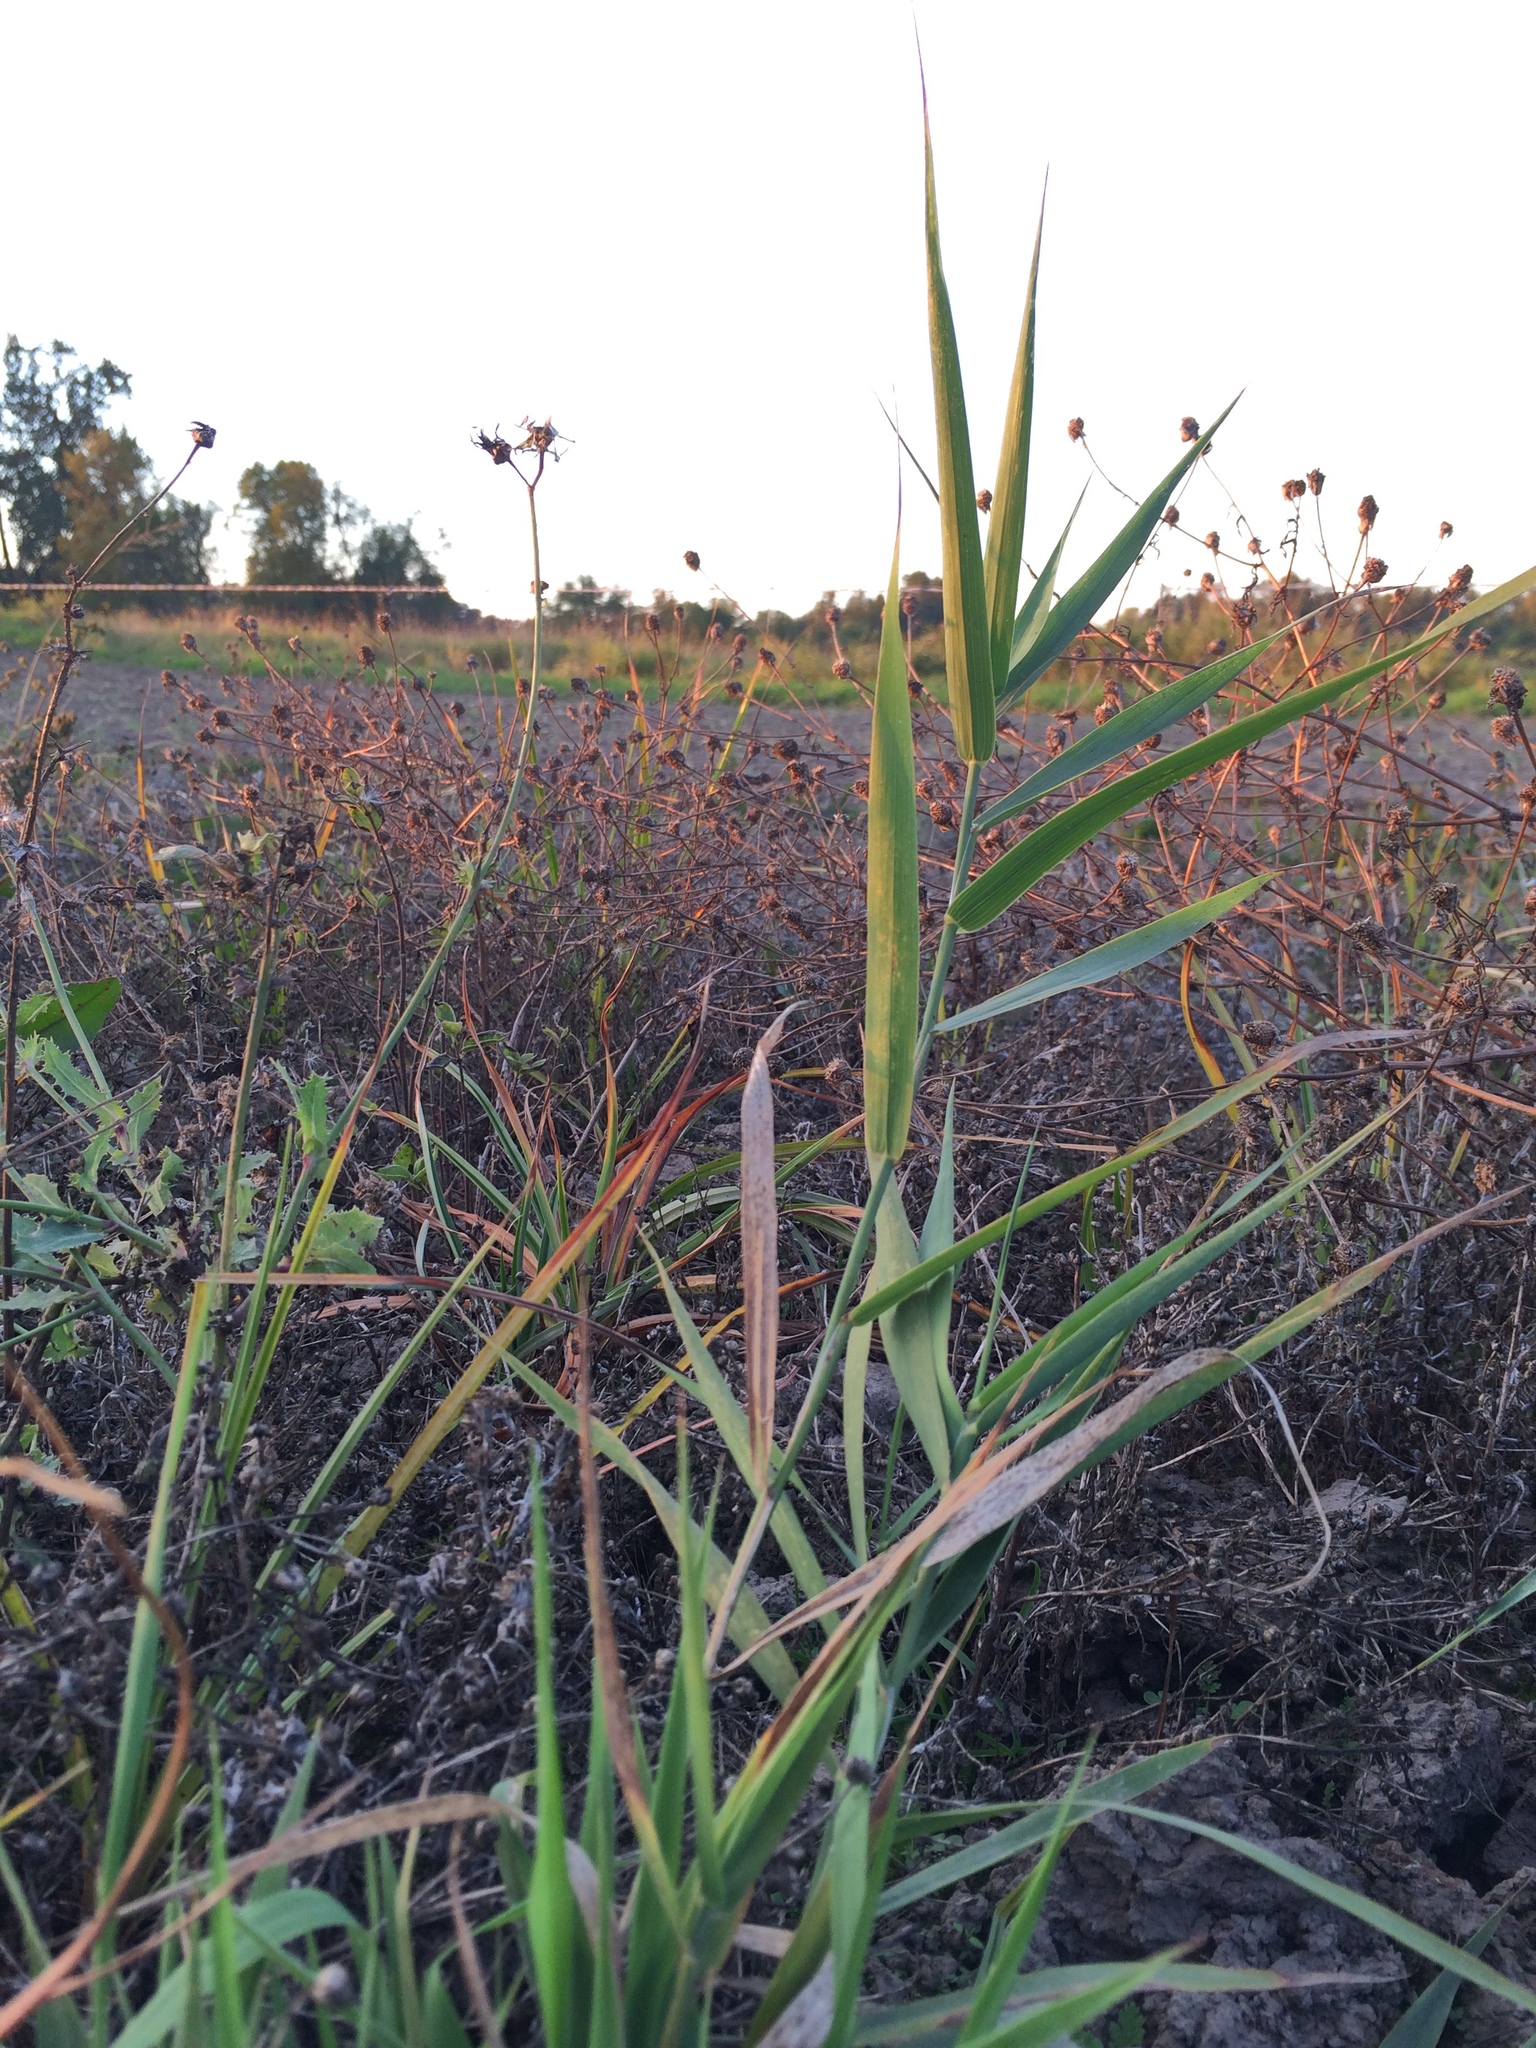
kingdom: Plantae
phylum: Tracheophyta
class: Liliopsida
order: Poales
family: Poaceae
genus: Phalaris
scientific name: Phalaris arundinacea
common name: Reed canary-grass
